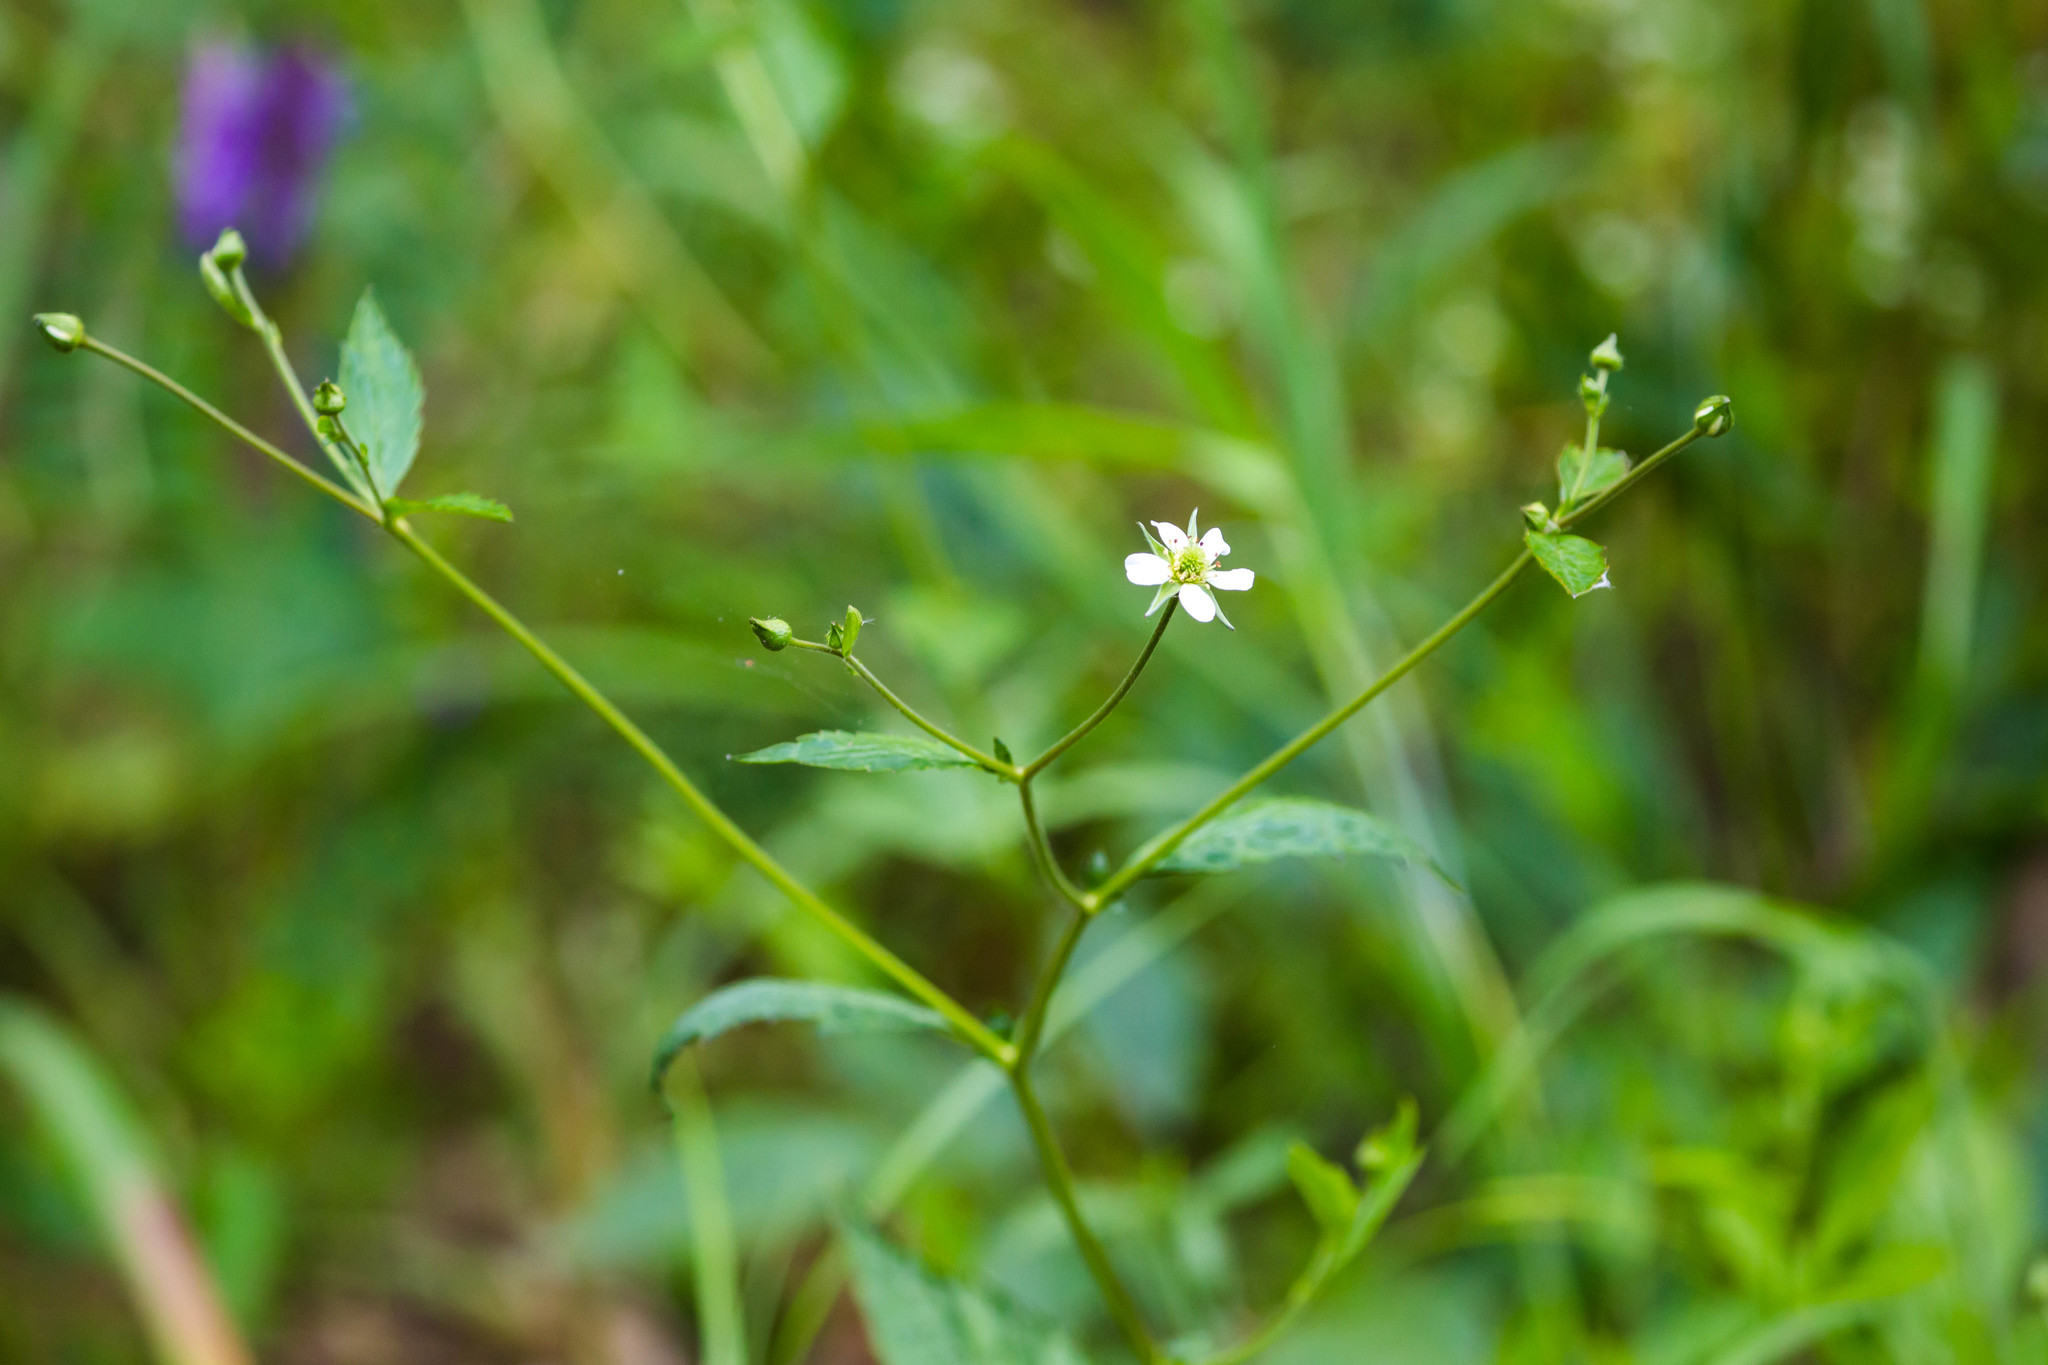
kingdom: Plantae
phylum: Tracheophyta
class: Magnoliopsida
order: Rosales
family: Rosaceae
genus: Geum
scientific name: Geum canadense
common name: White avens
